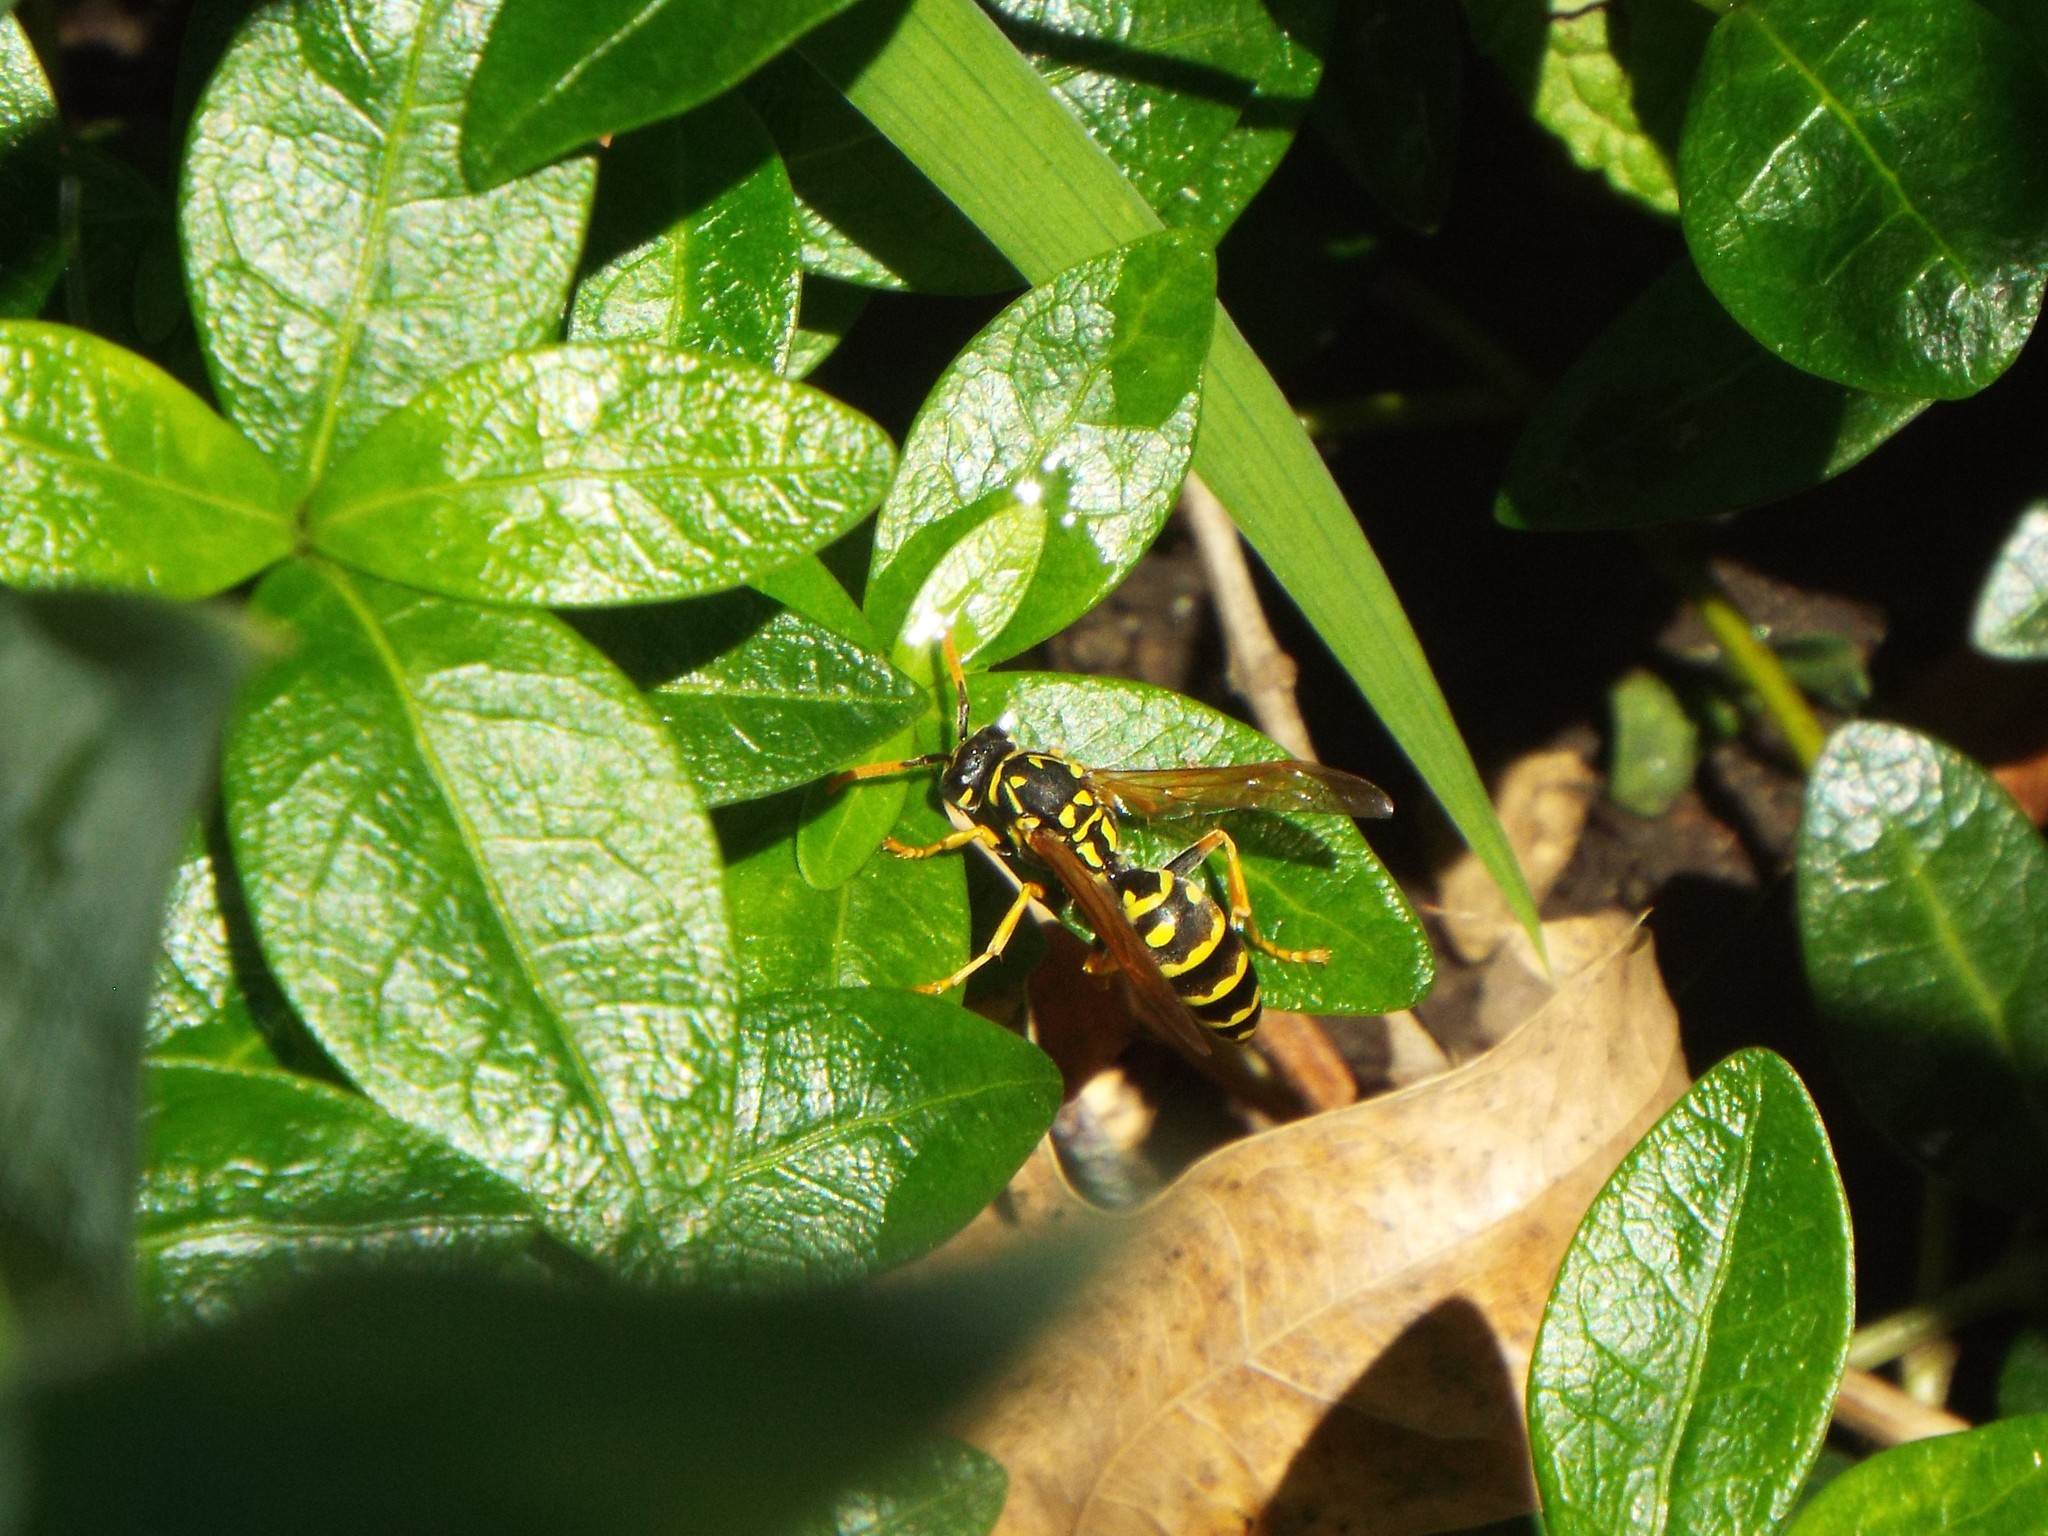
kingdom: Animalia
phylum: Arthropoda
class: Insecta
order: Hymenoptera
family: Eumenidae
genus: Polistes
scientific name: Polistes dominula
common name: Paper wasp
